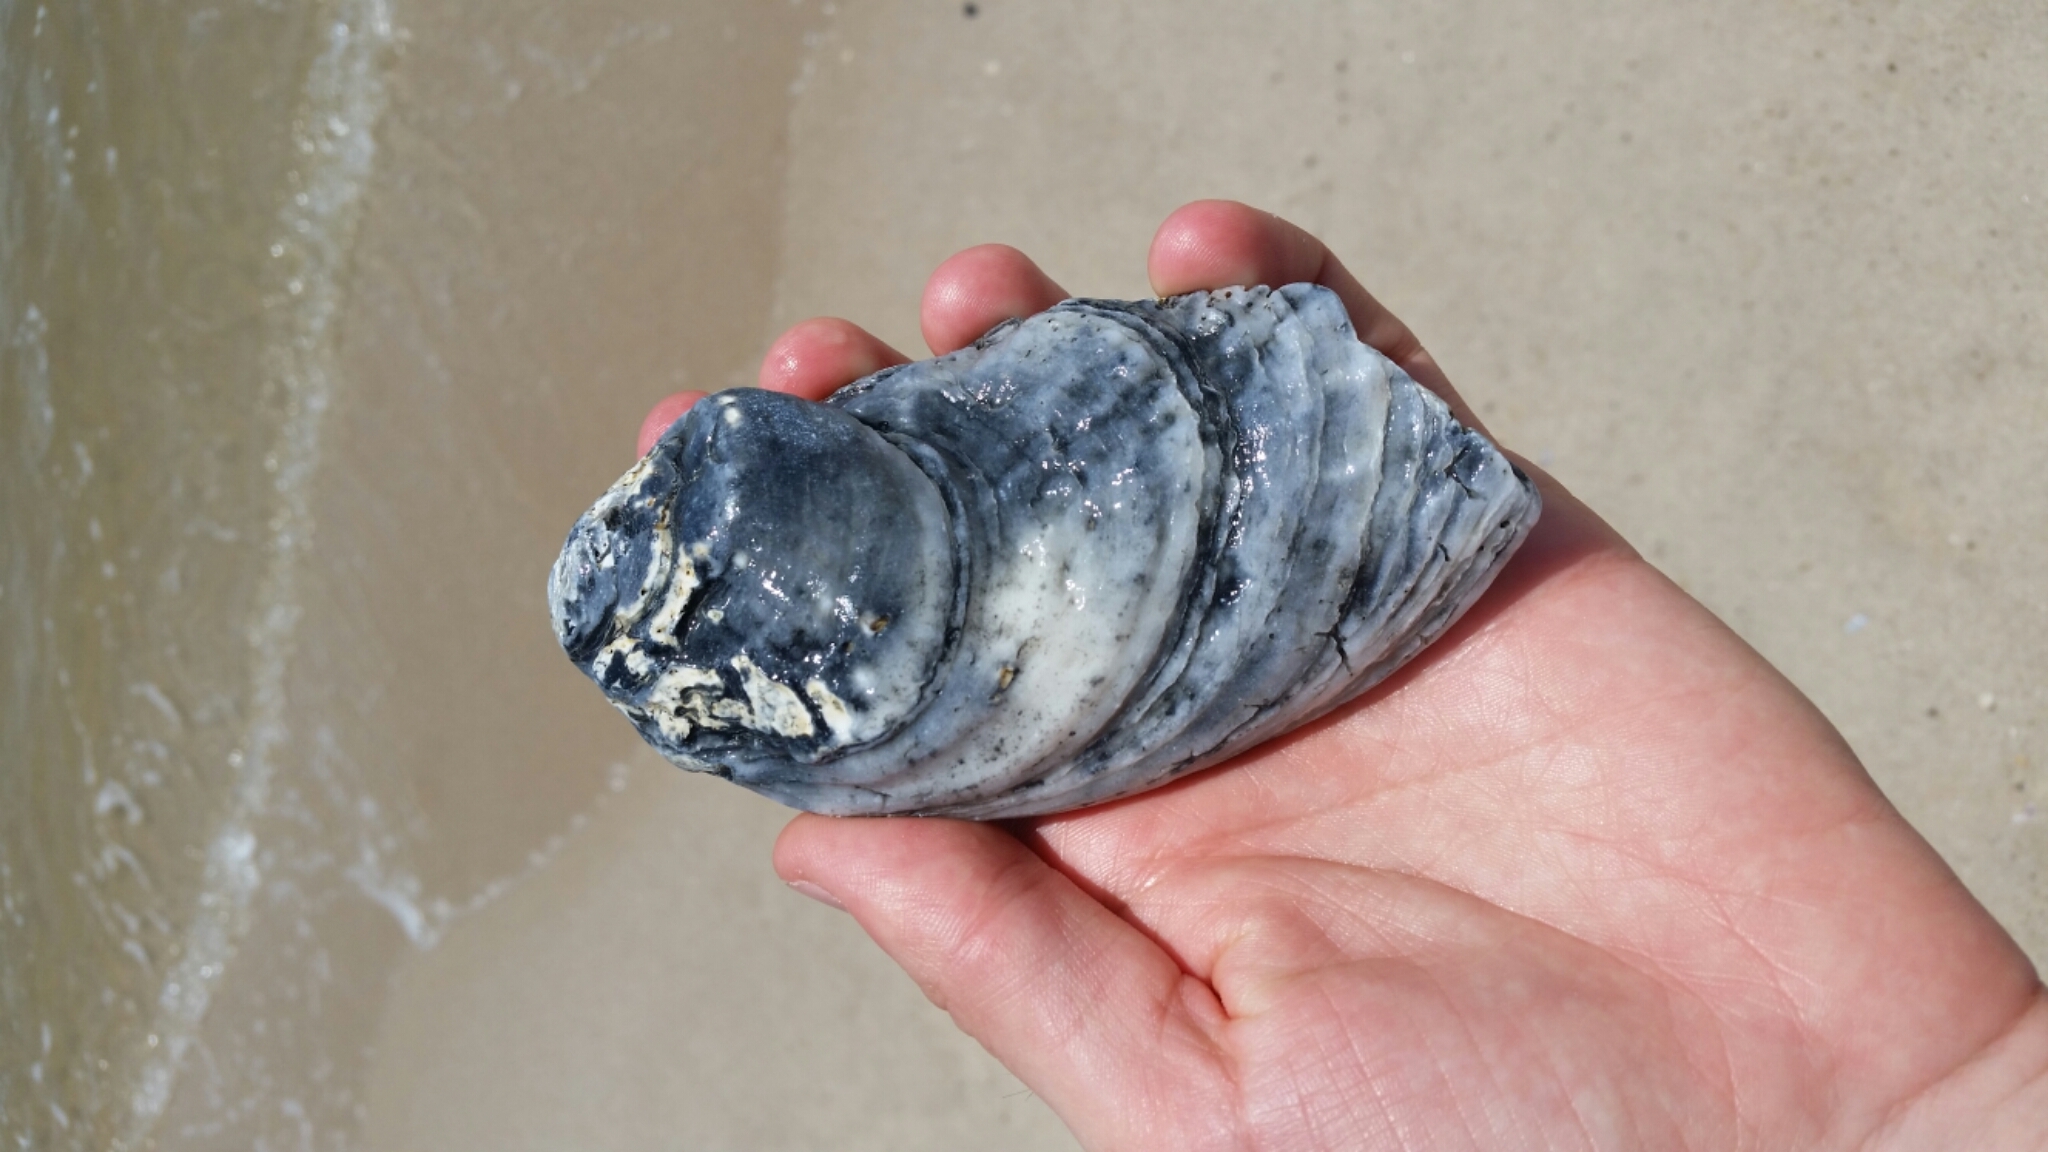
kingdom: Animalia
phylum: Mollusca
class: Bivalvia
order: Ostreida
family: Ostreidae
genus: Crassostrea
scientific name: Crassostrea virginica
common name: American oyster
